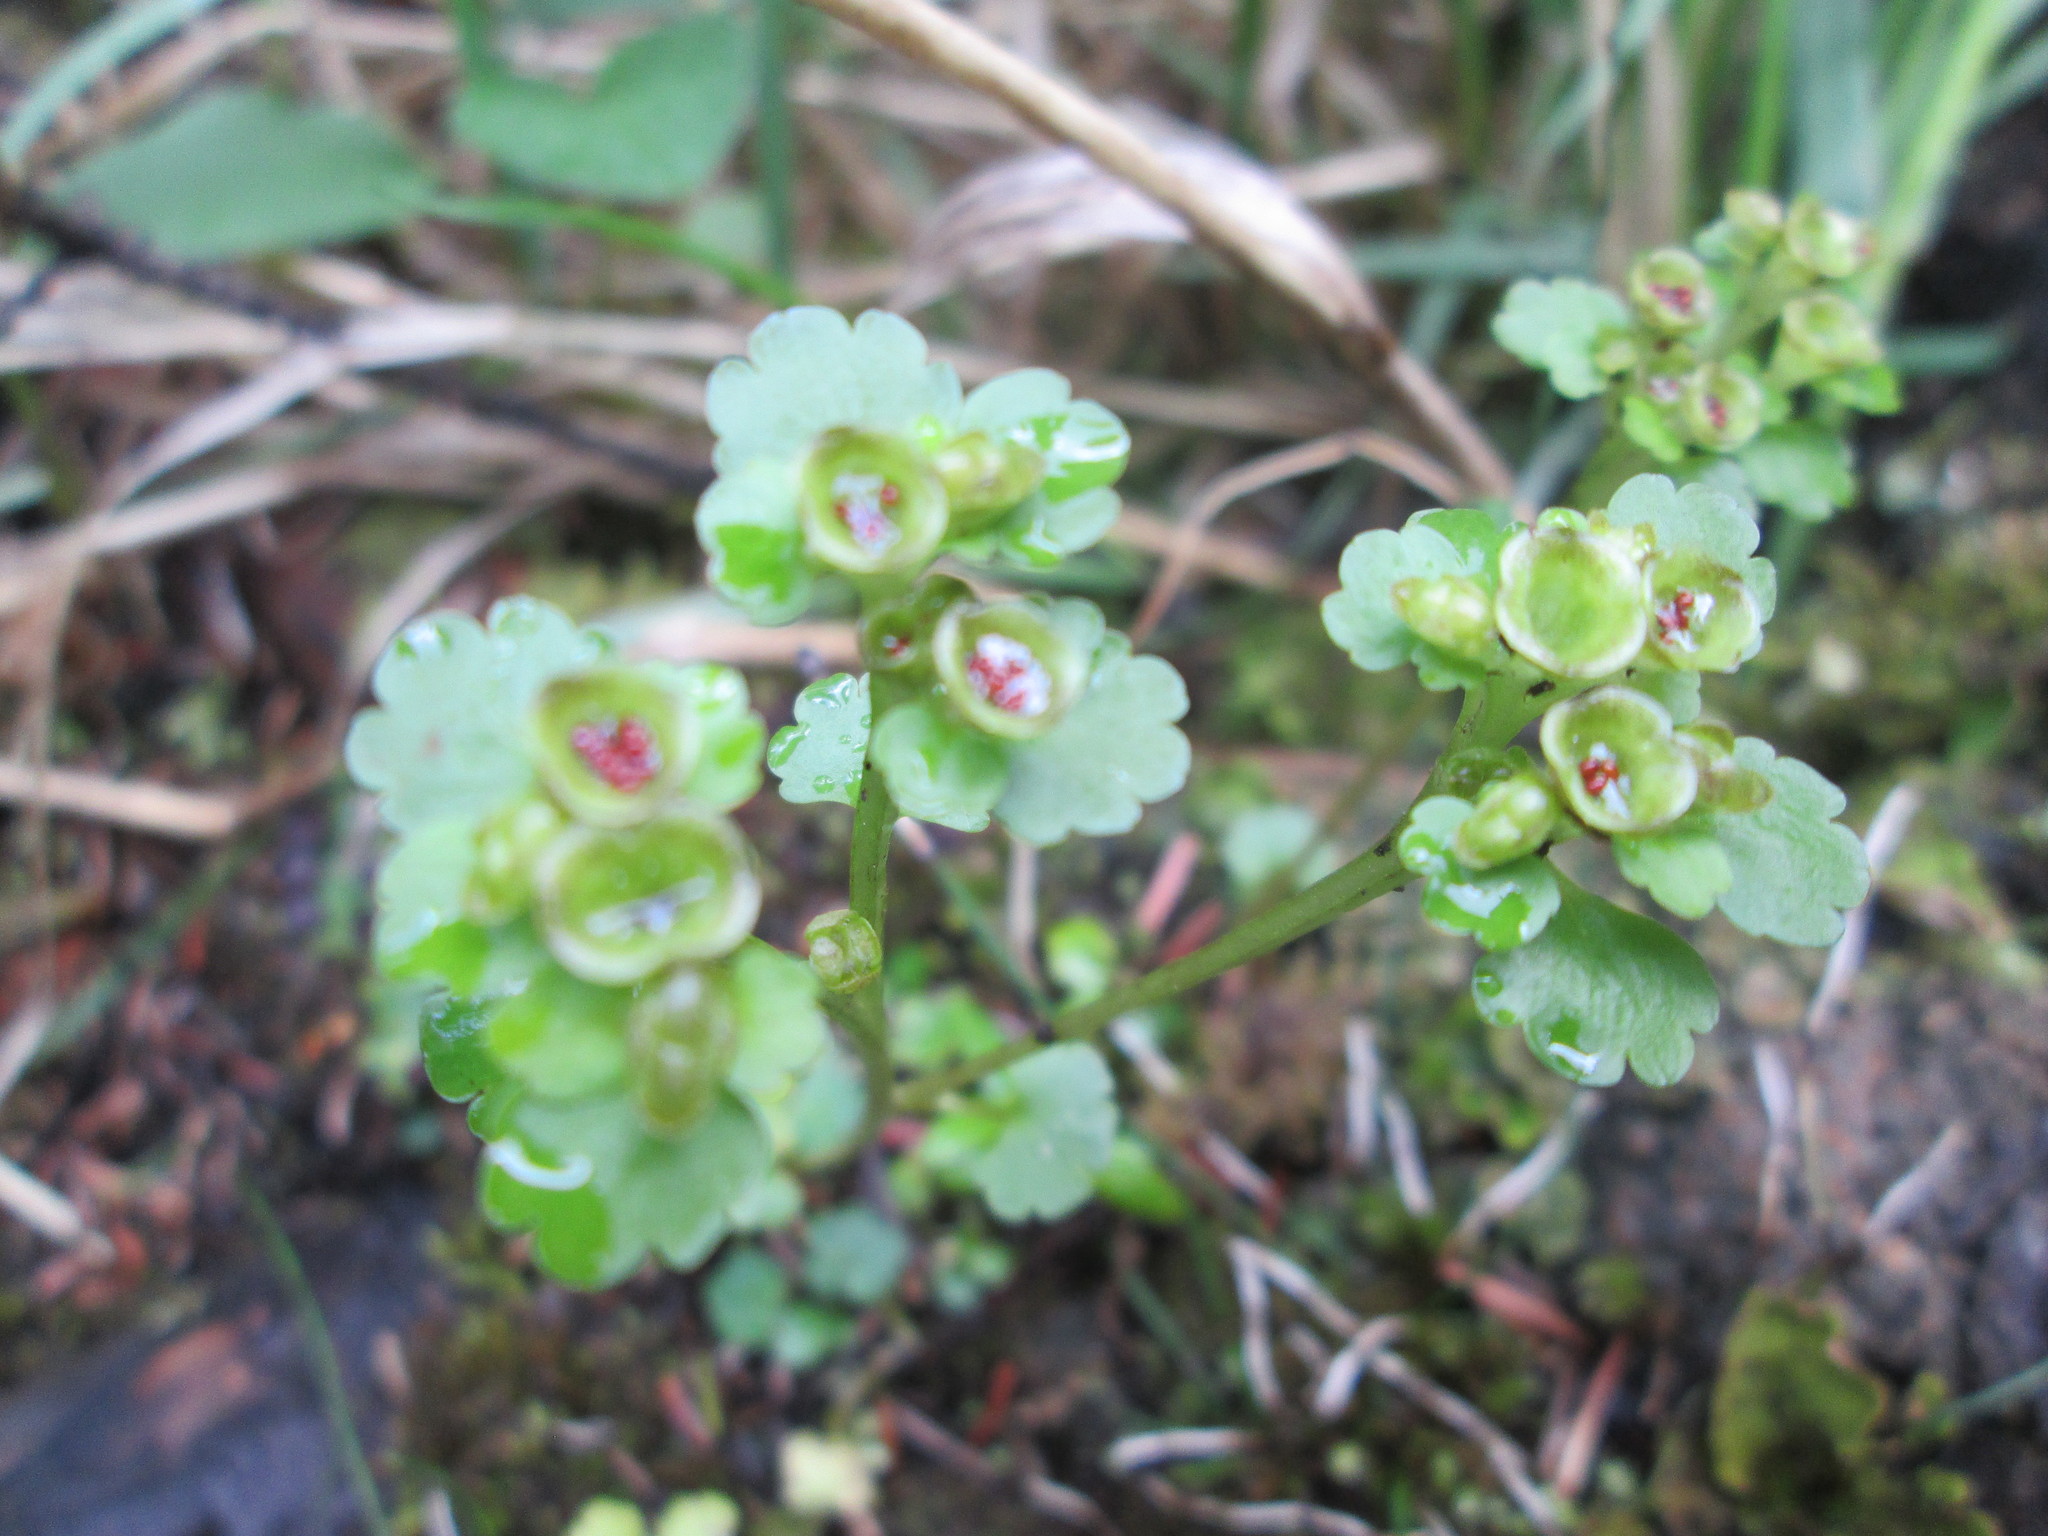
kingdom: Plantae
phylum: Tracheophyta
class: Magnoliopsida
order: Saxifragales
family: Saxifragaceae
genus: Chrysosplenium
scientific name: Chrysosplenium tetrandrum
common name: Green saxifrage
